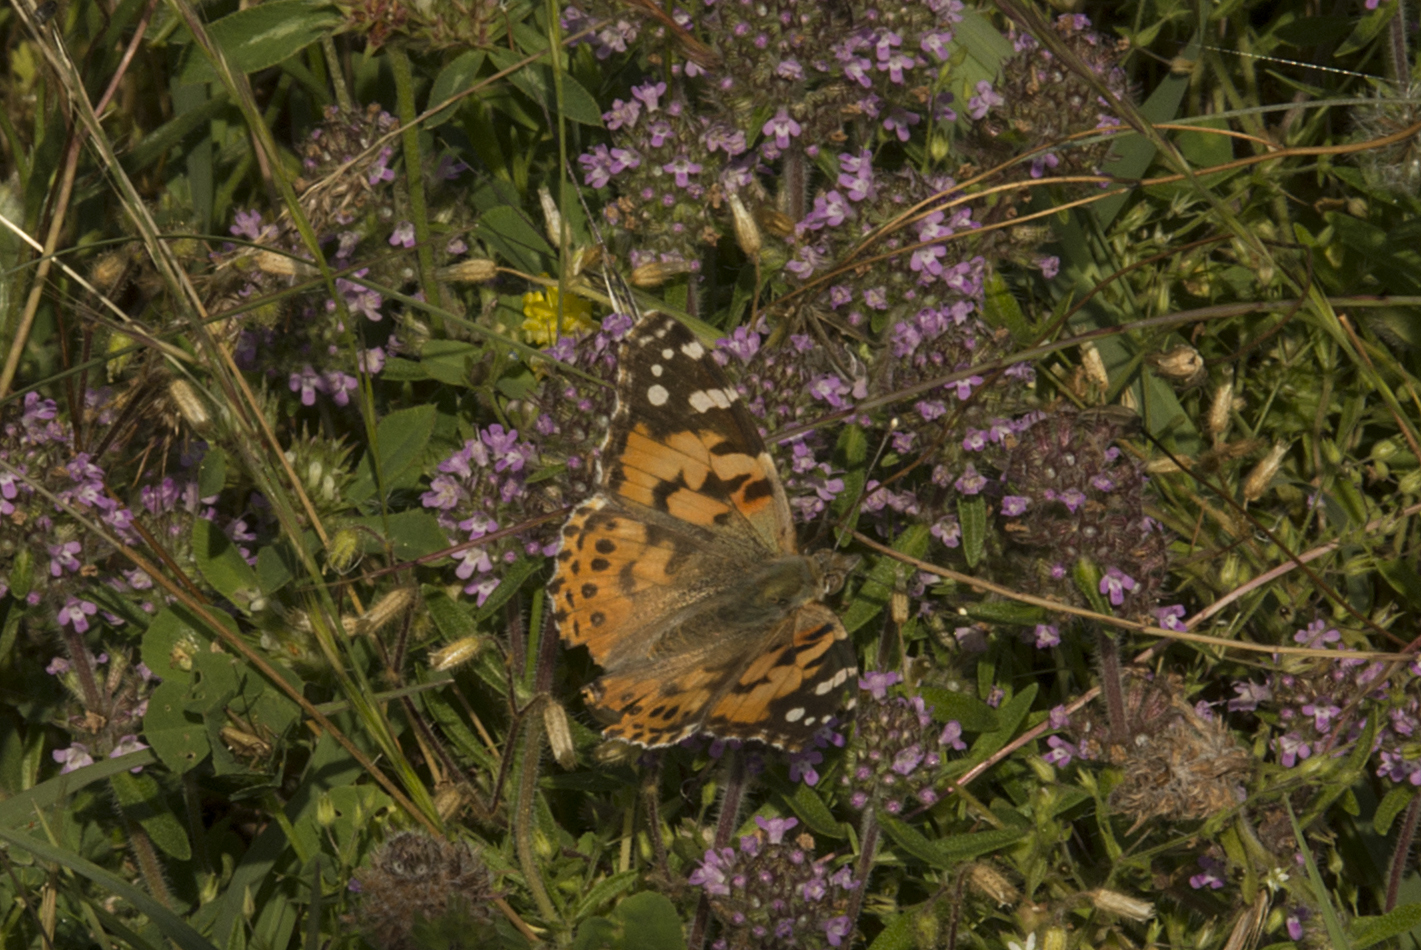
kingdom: Animalia
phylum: Arthropoda
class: Insecta
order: Lepidoptera
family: Nymphalidae
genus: Vanessa
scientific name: Vanessa cardui
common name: Painted lady
